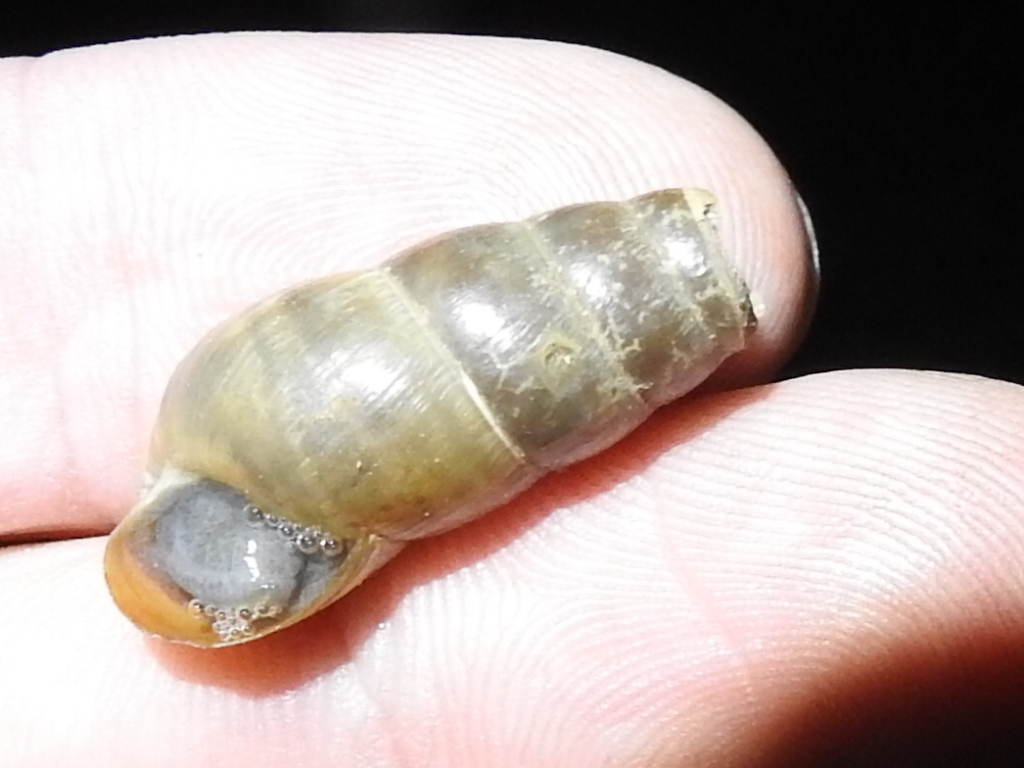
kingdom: Animalia
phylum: Mollusca
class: Gastropoda
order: Stylommatophora
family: Achatinidae
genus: Rumina
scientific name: Rumina decollata
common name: Decollate snail
